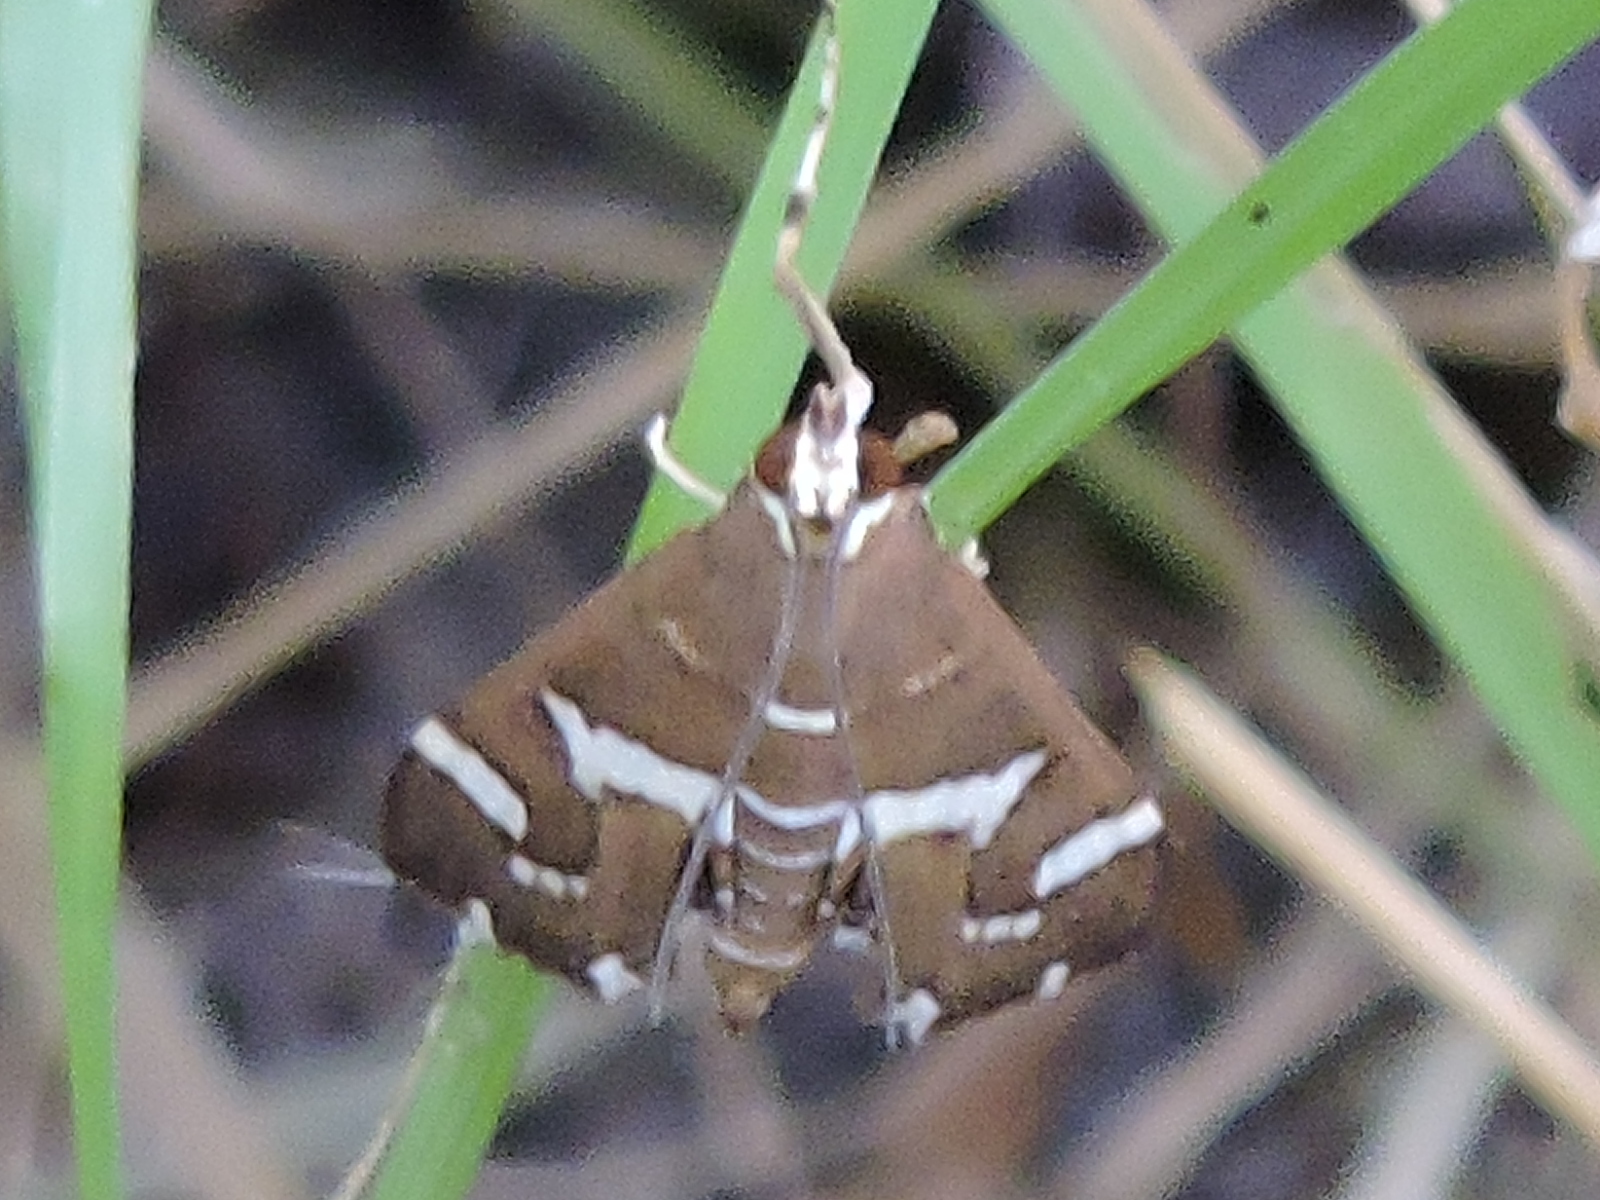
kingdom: Animalia
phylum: Arthropoda
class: Insecta
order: Lepidoptera
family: Crambidae
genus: Spoladea
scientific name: Spoladea recurvalis
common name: Beet webworm moth
